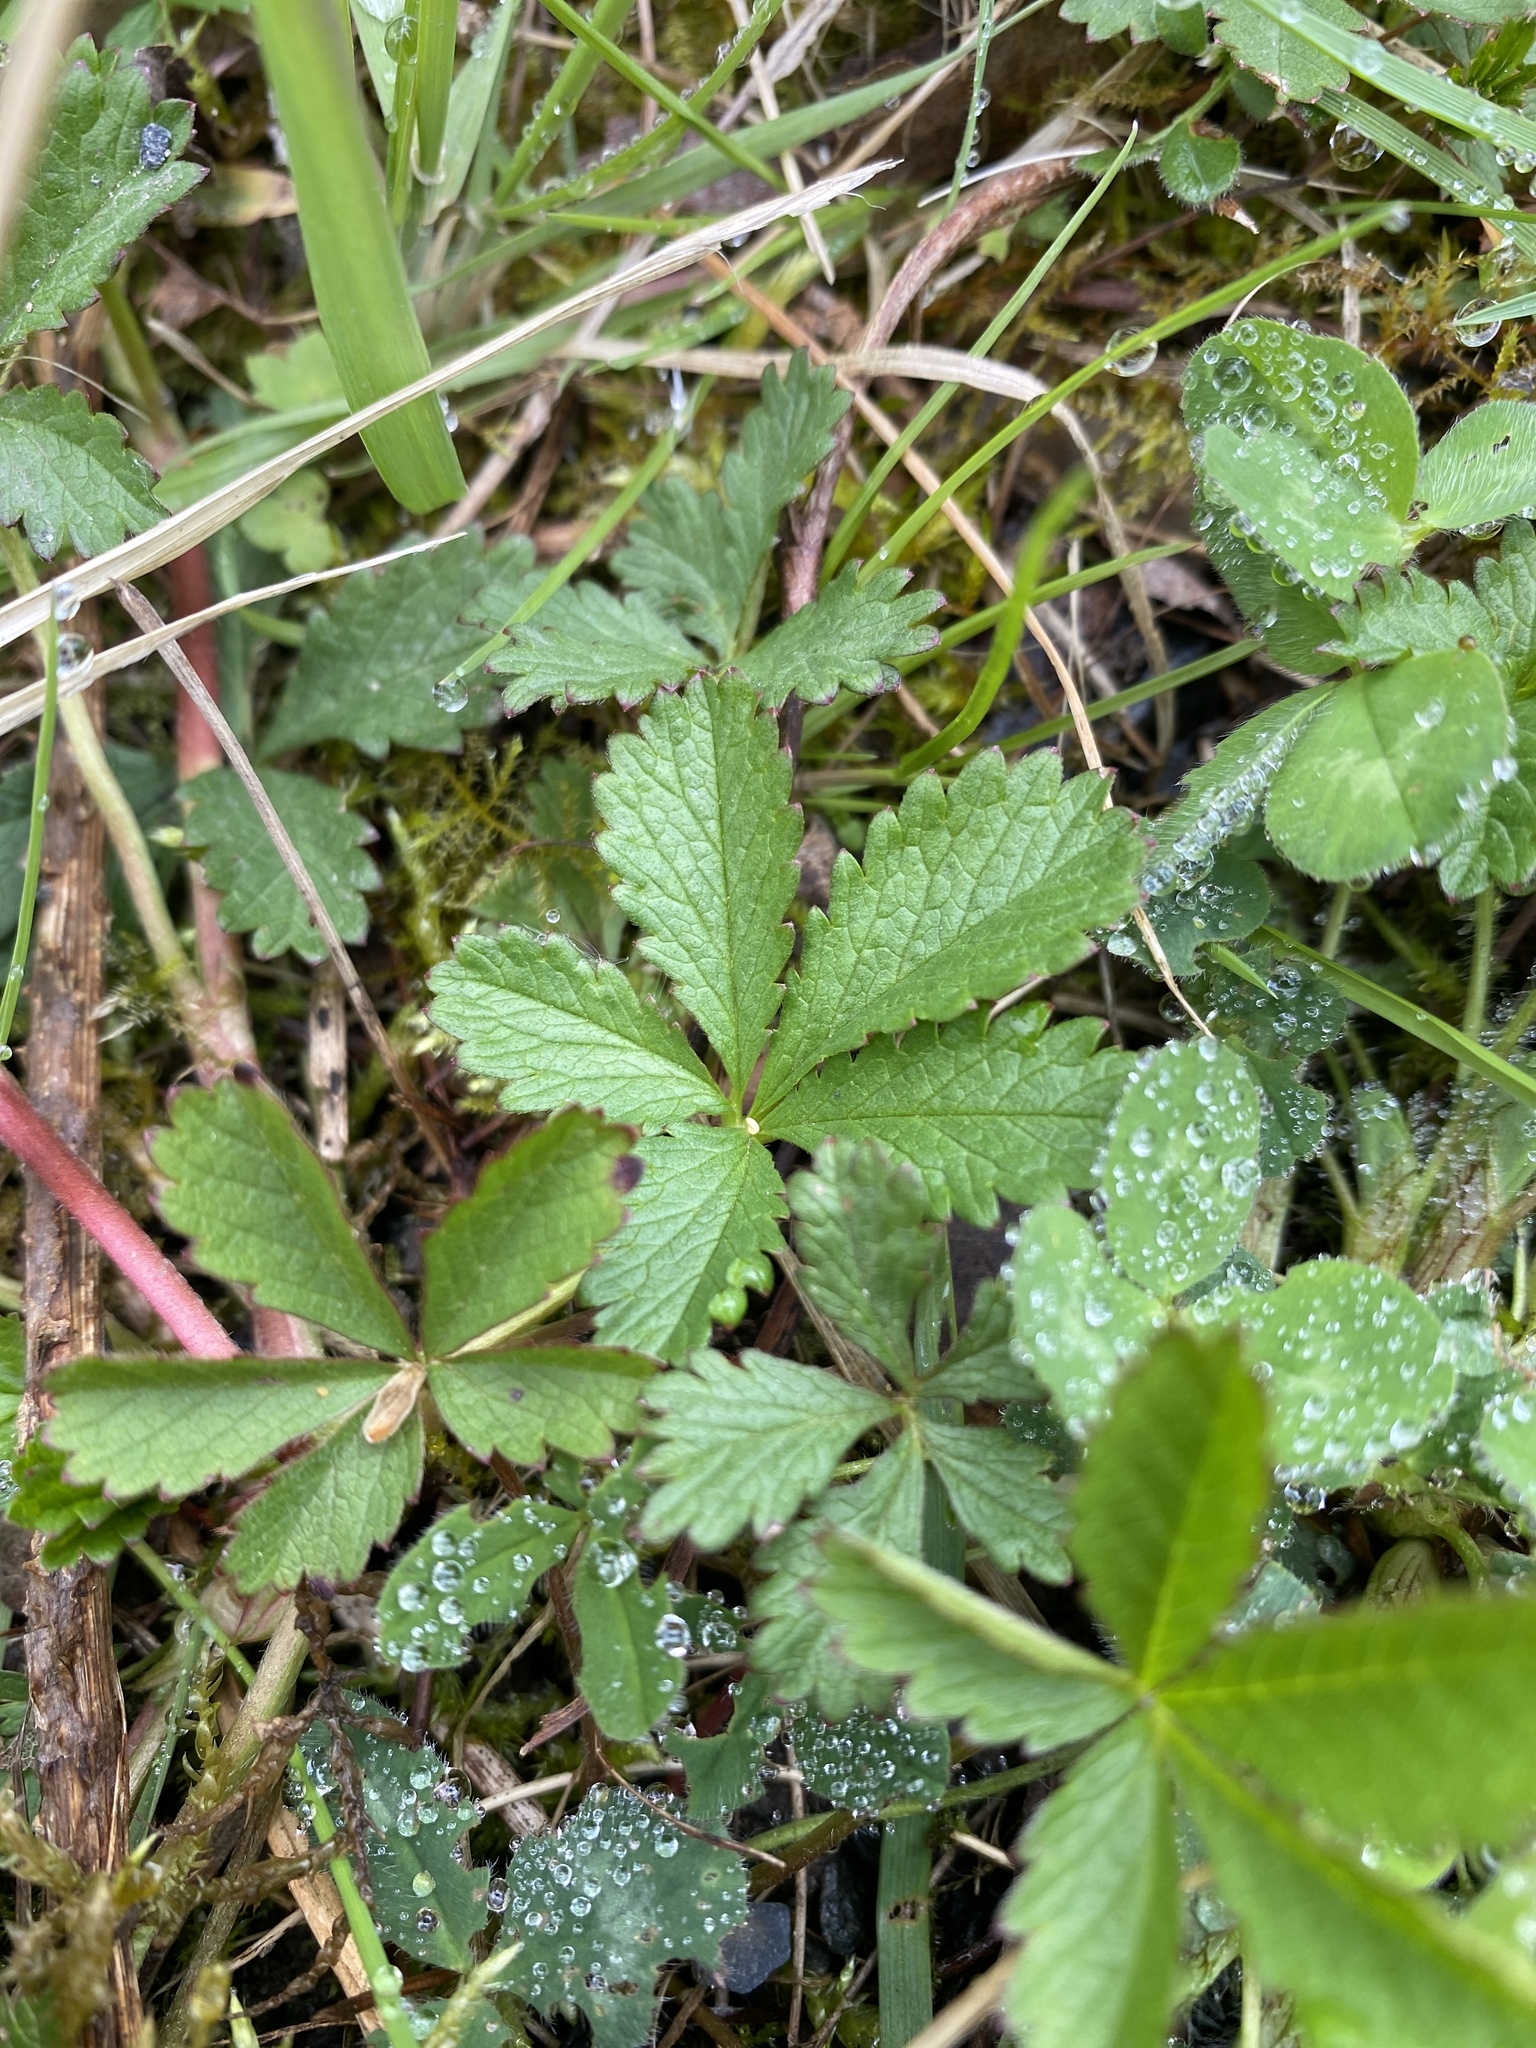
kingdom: Plantae
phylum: Tracheophyta
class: Magnoliopsida
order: Rosales
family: Rosaceae
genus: Potentilla
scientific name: Potentilla reptans
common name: Creeping cinquefoil
